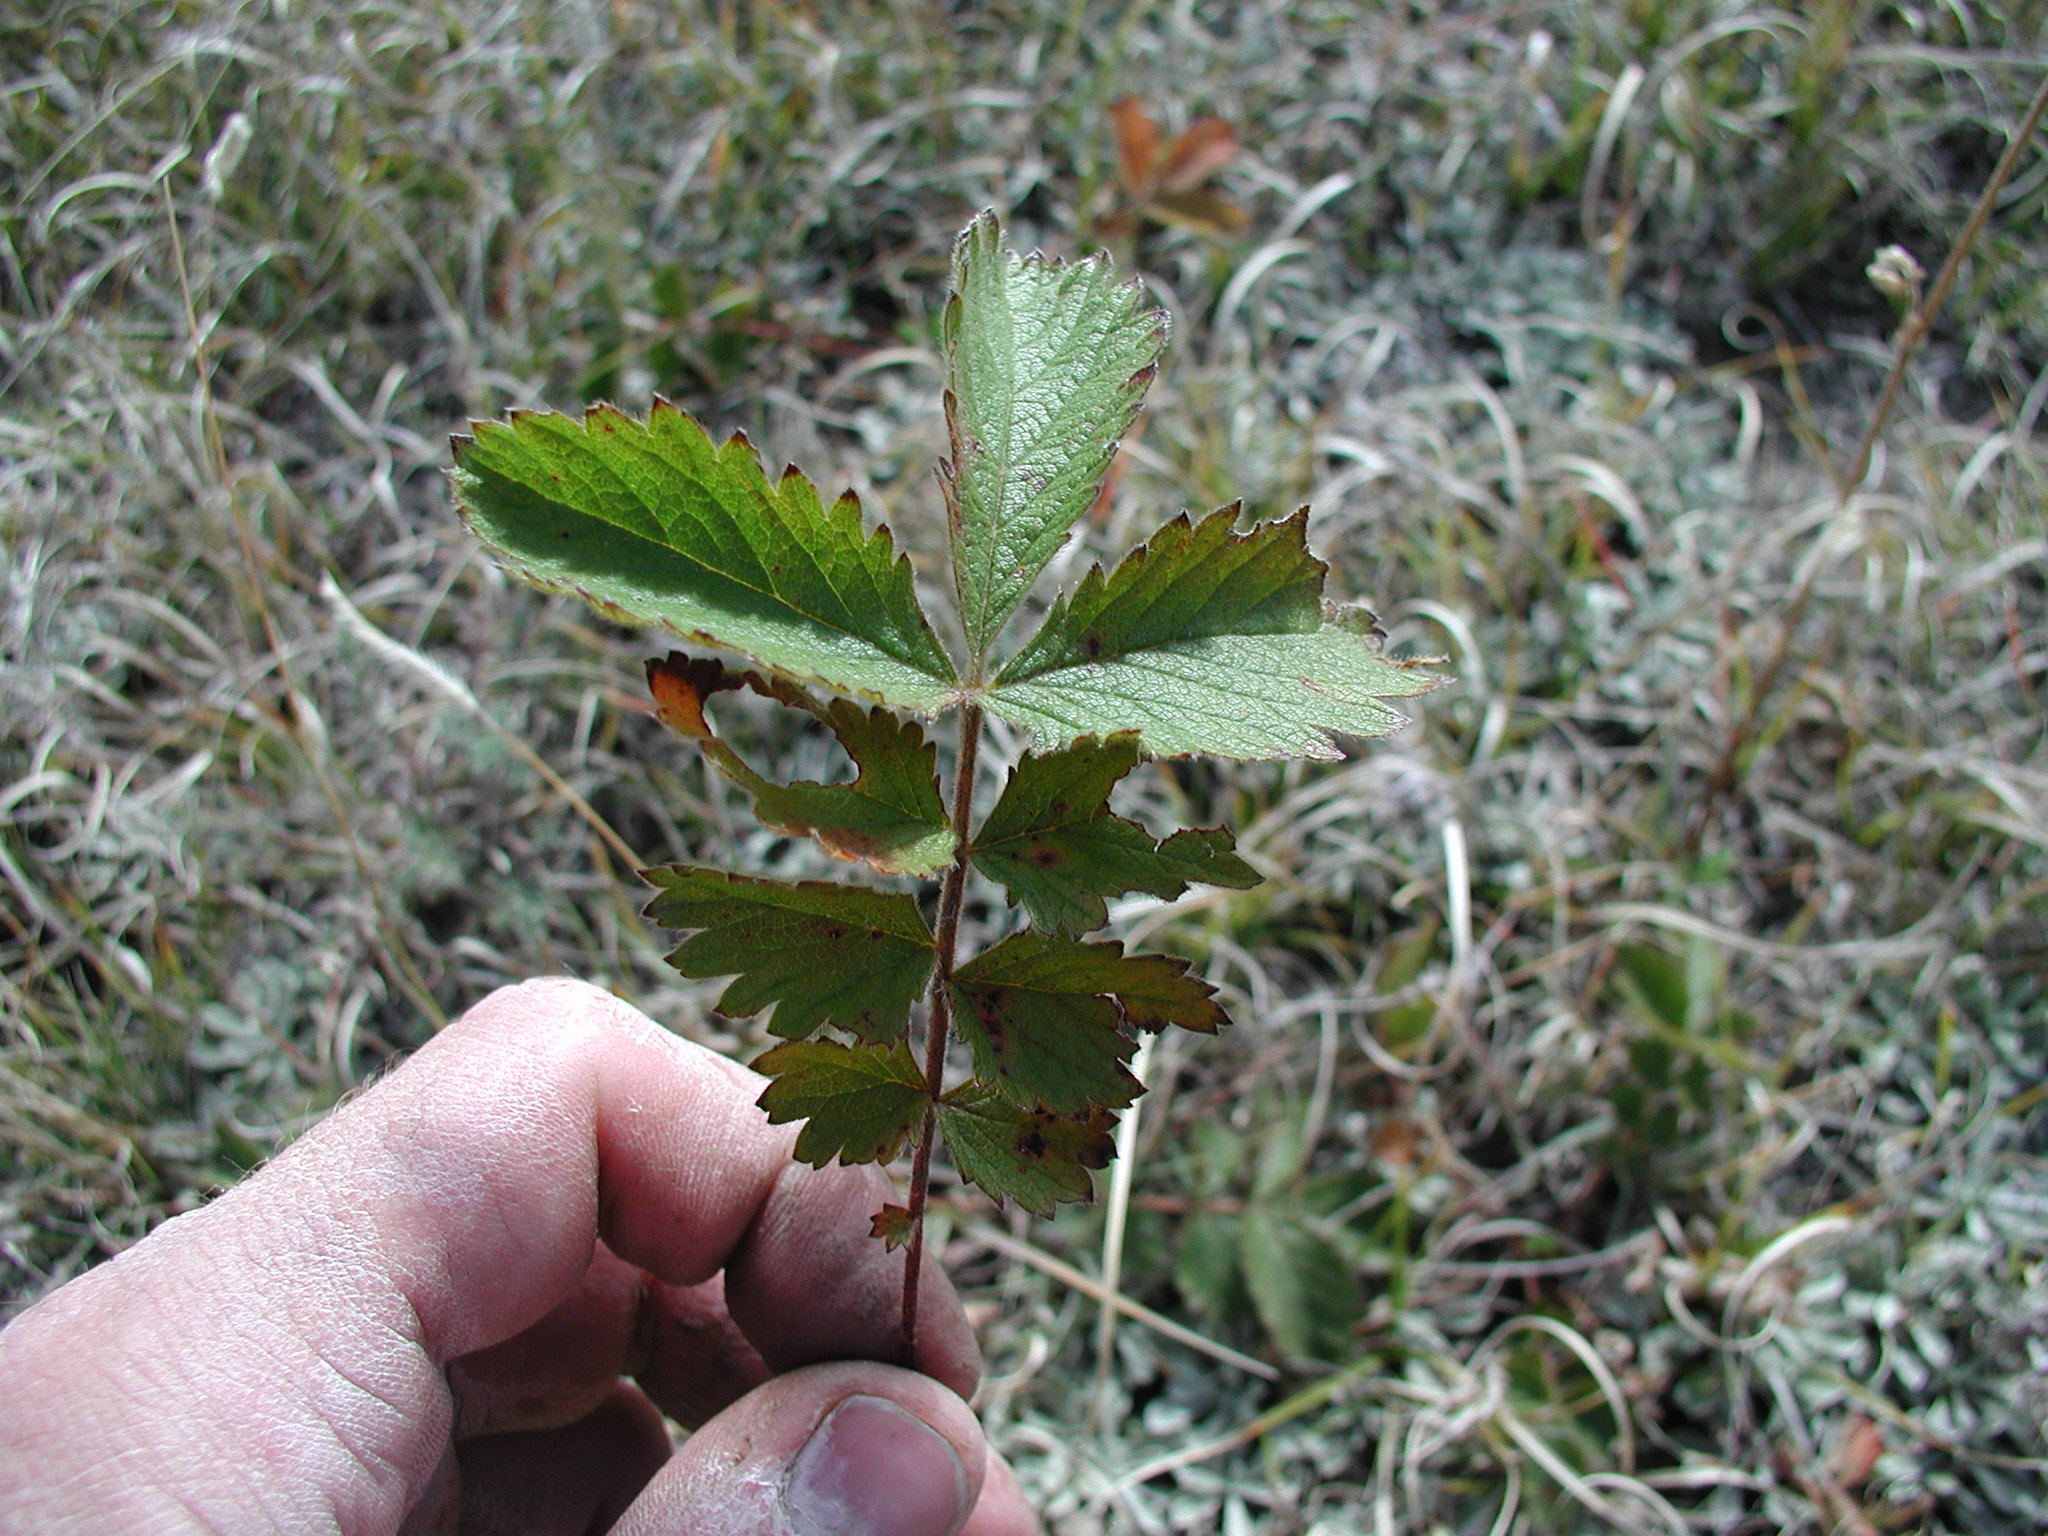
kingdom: Plantae
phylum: Tracheophyta
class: Magnoliopsida
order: Rosales
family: Rosaceae
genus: Potentilla
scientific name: Potentilla hippiana
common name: Woolly cinquefoil
